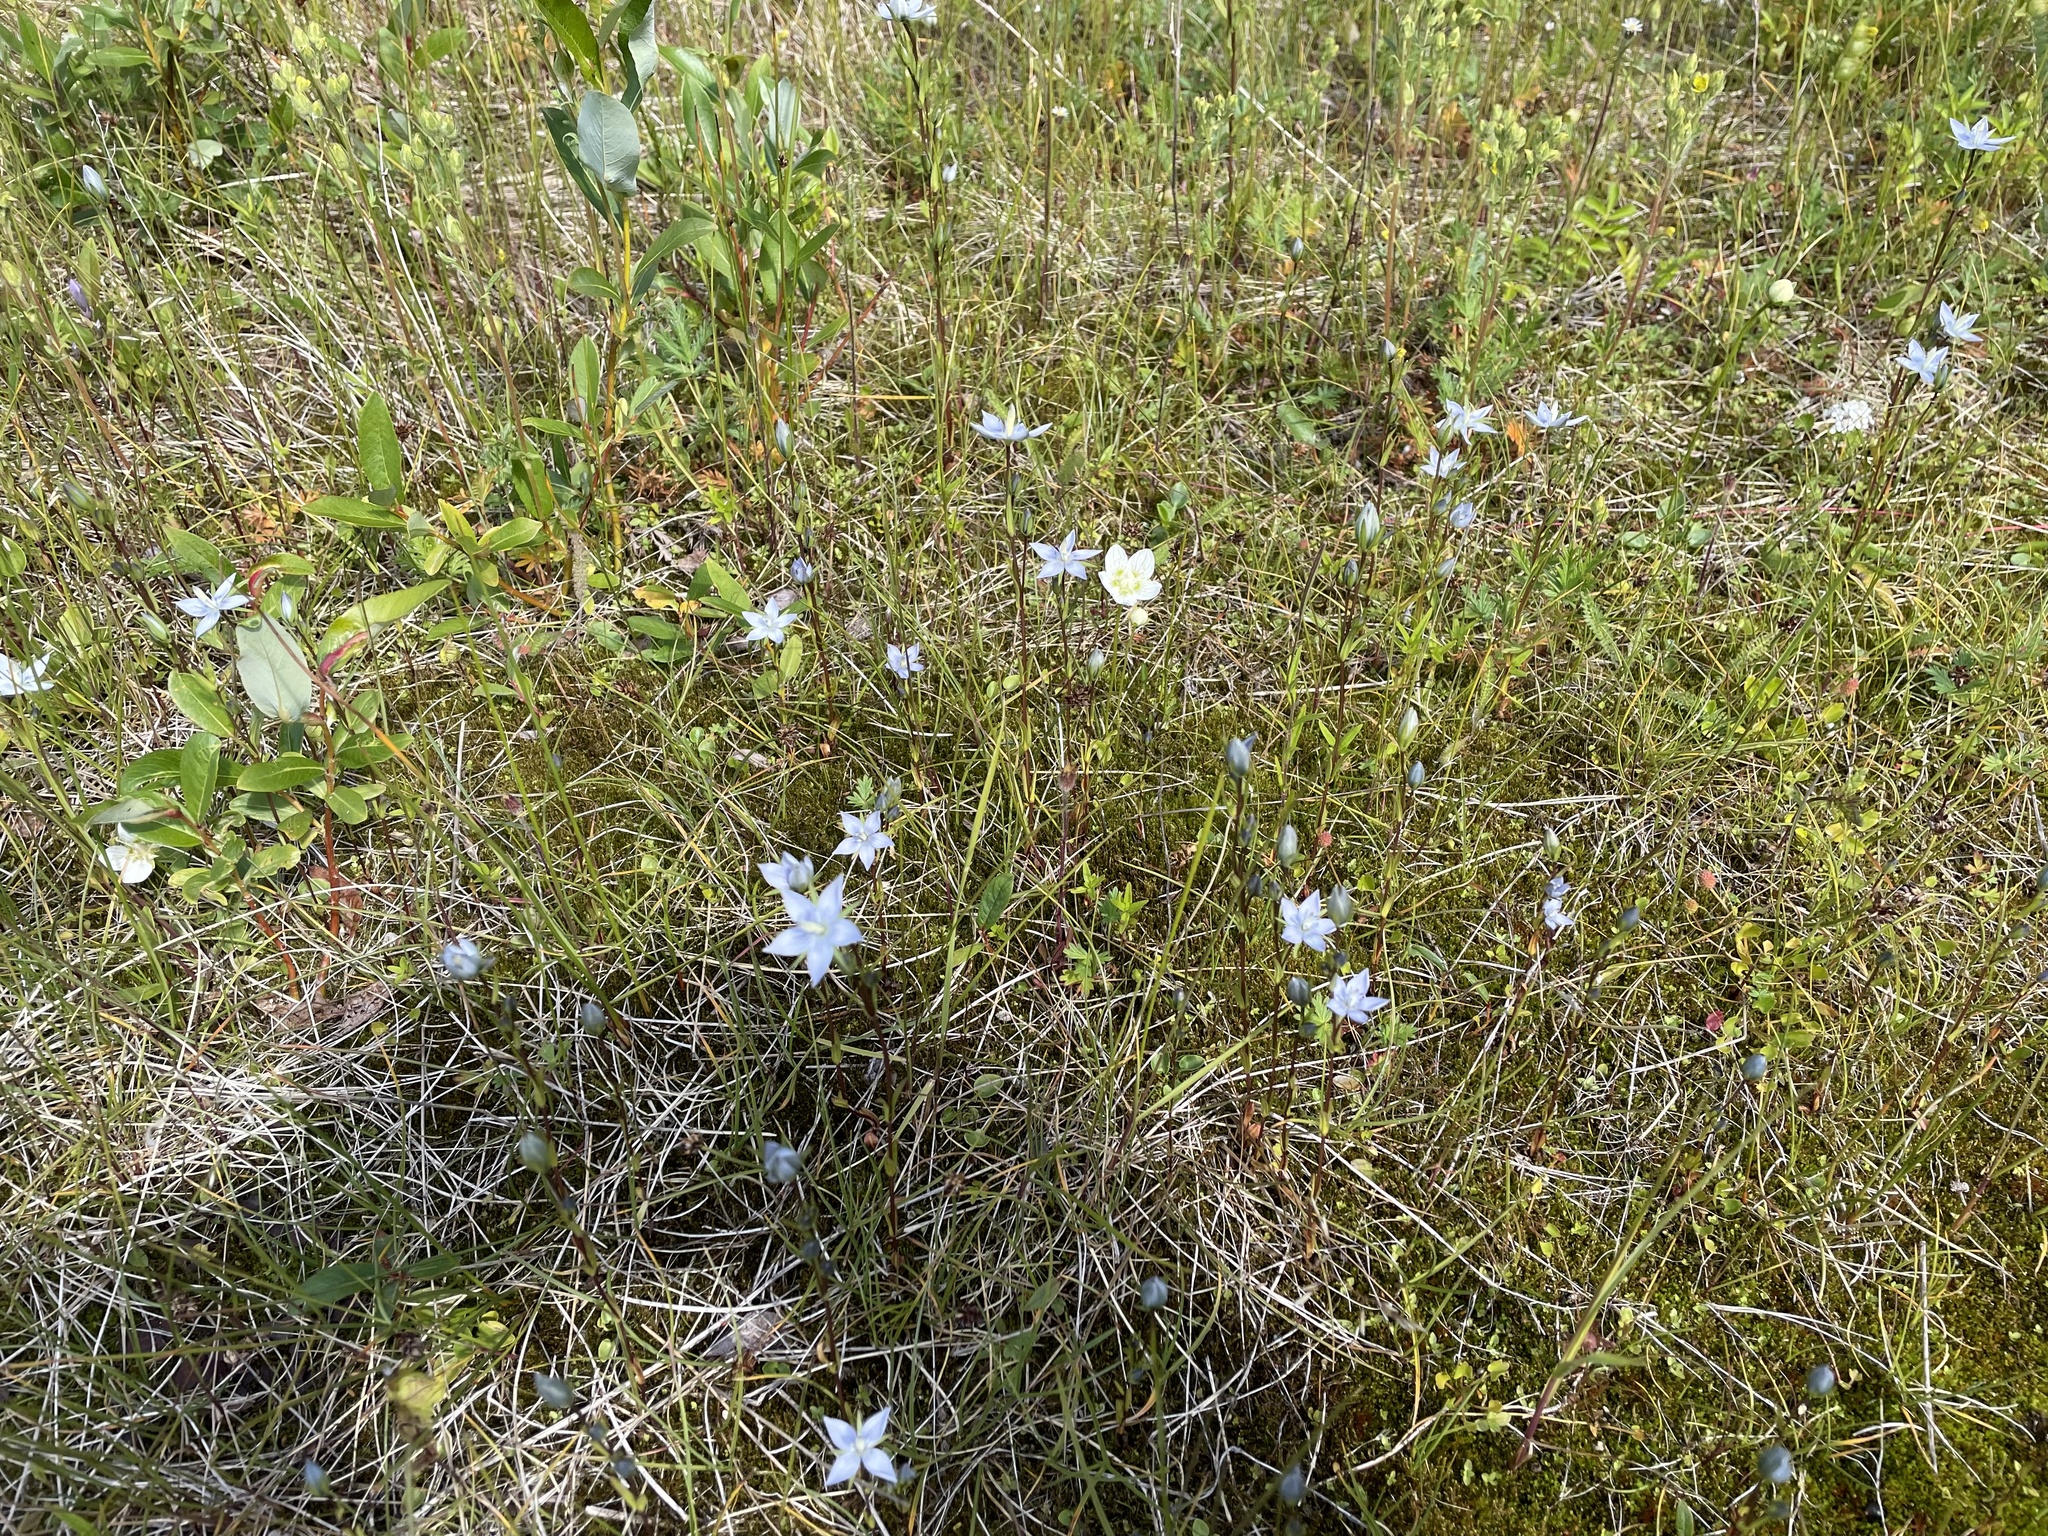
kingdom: Plantae
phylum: Tracheophyta
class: Magnoliopsida
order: Gentianales
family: Gentianaceae
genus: Lomatogonium
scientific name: Lomatogonium rotatum
